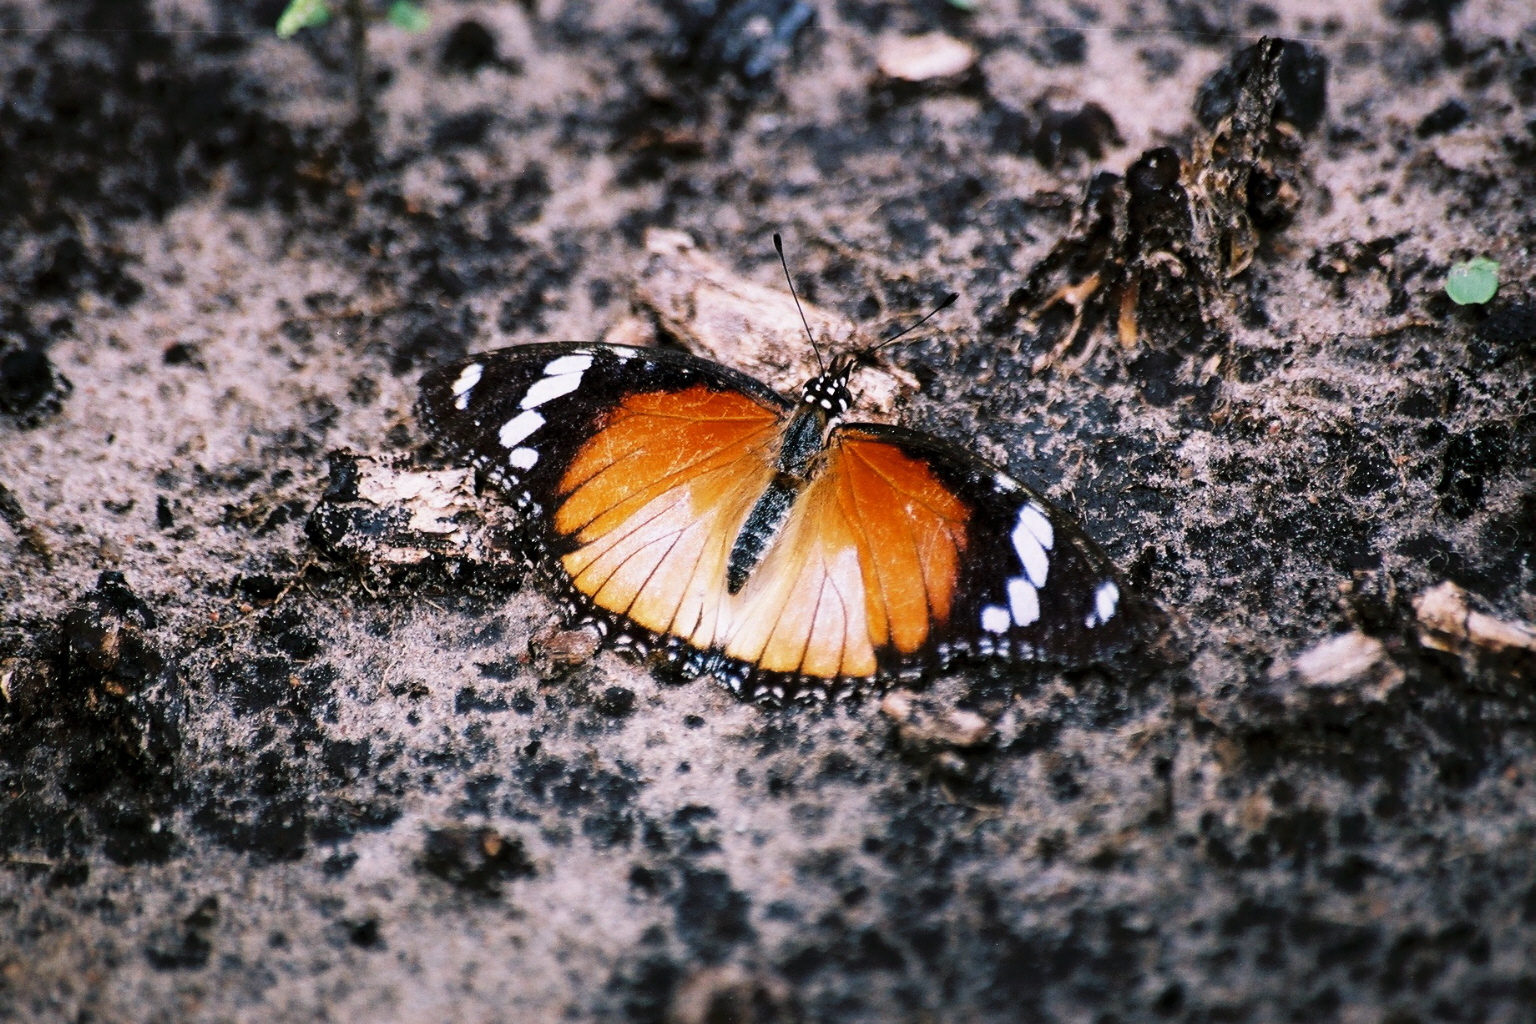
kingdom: Animalia
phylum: Arthropoda
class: Insecta
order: Lepidoptera
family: Nymphalidae
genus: Hypolimnas
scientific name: Hypolimnas misippus
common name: False plain tiger
